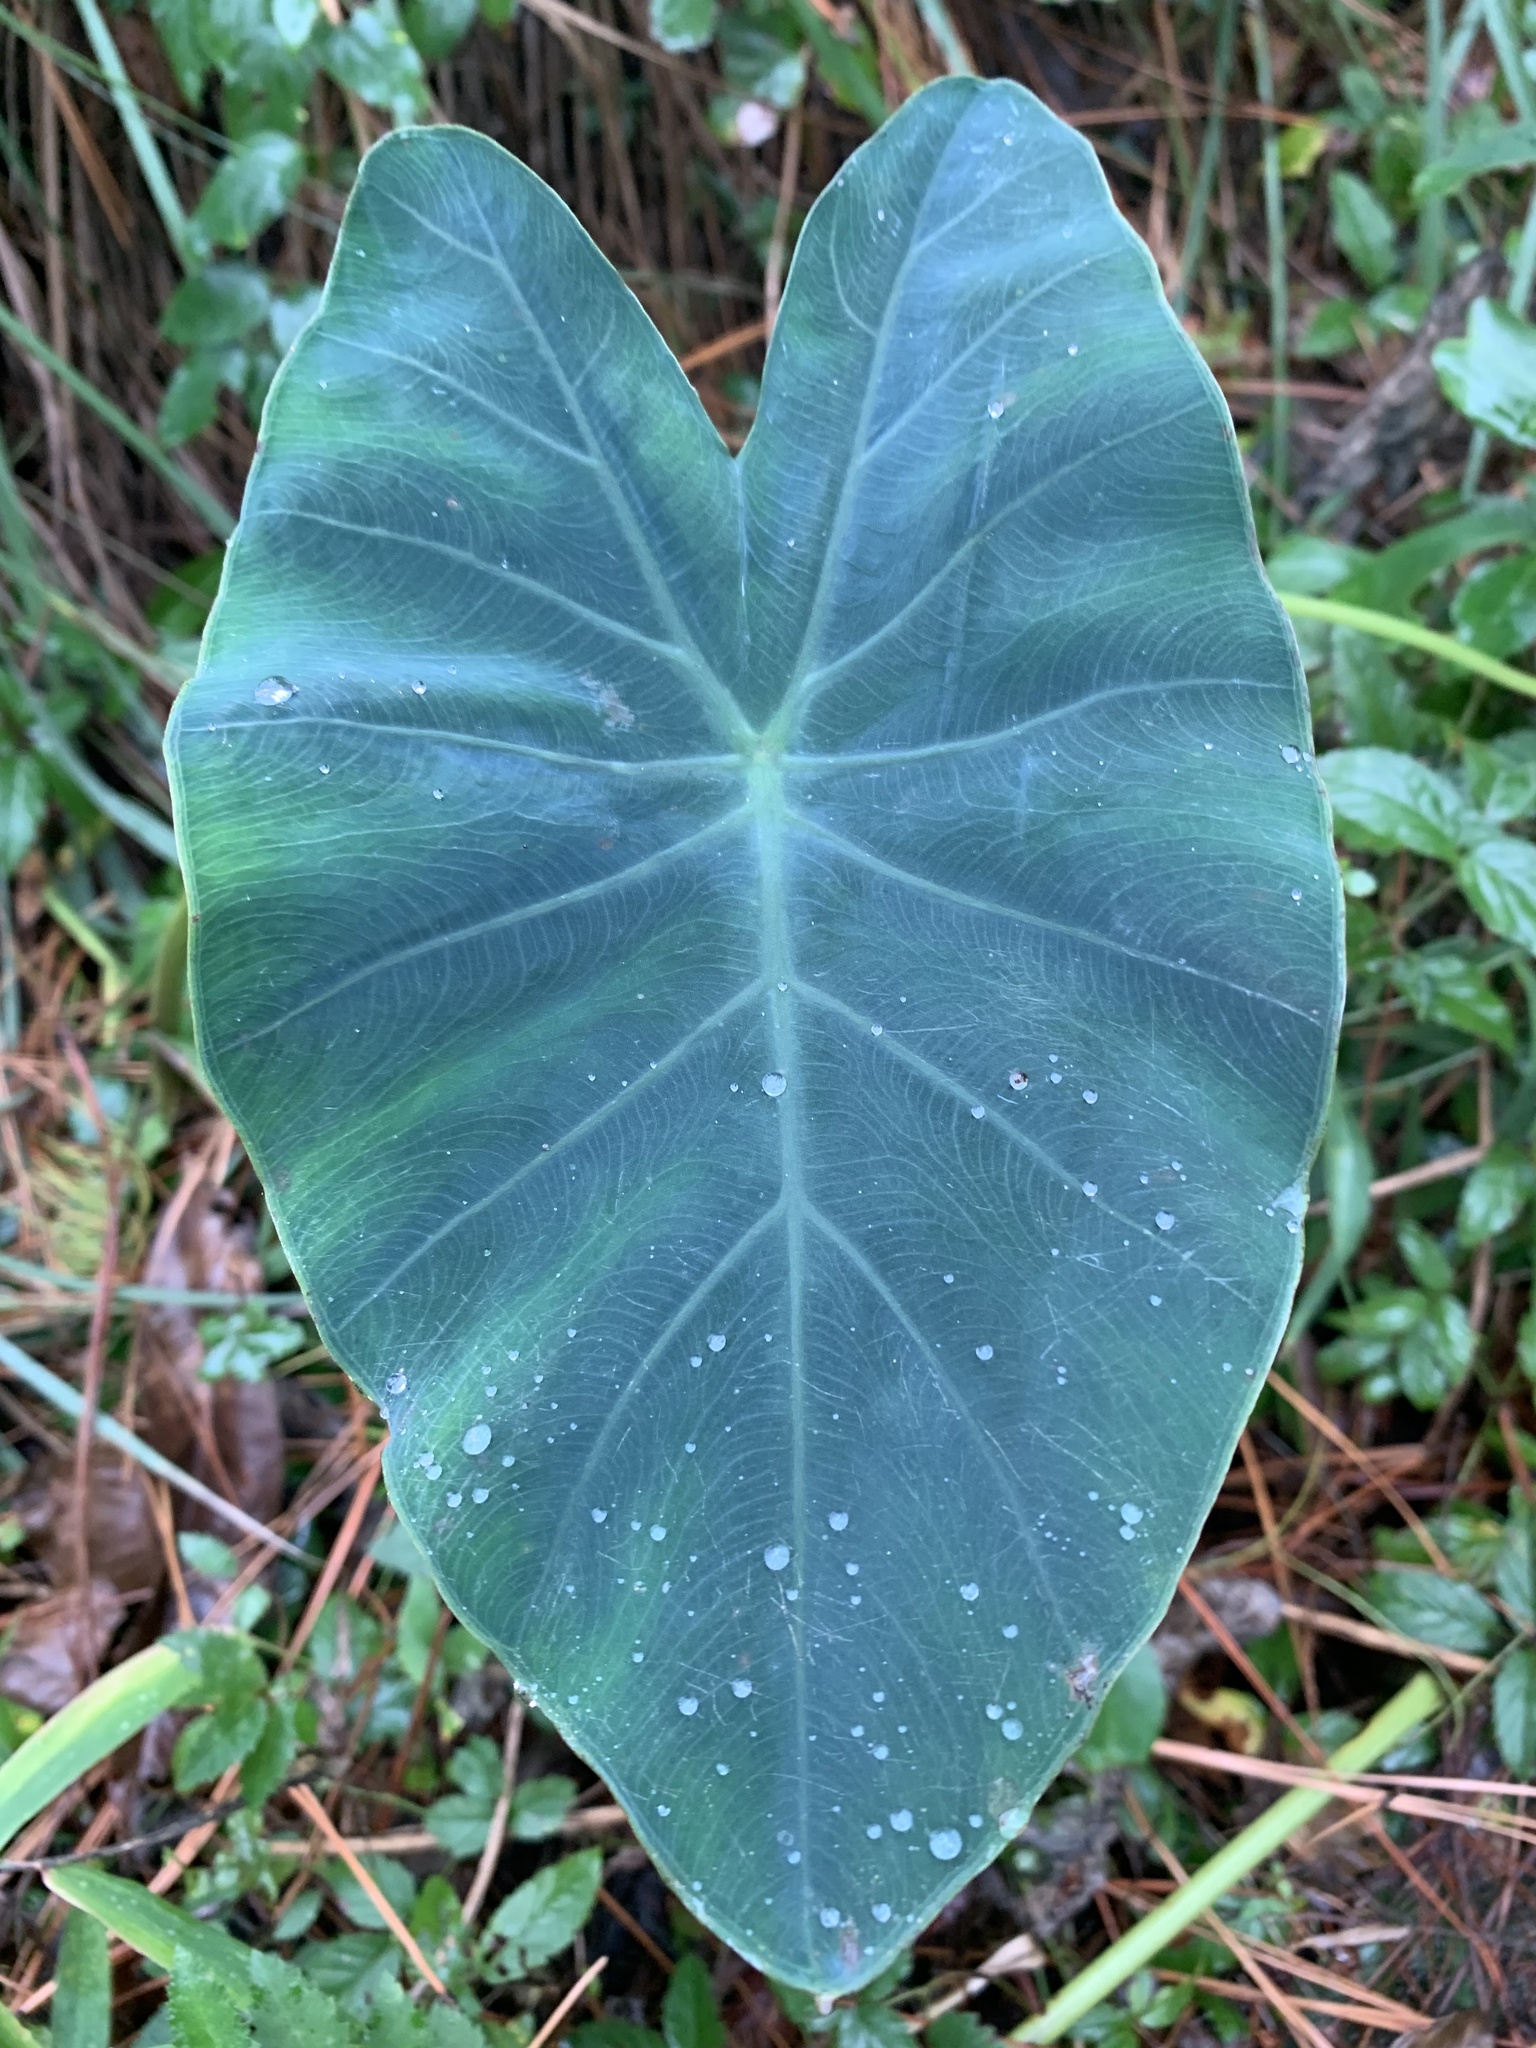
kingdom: Plantae
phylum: Tracheophyta
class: Liliopsida
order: Alismatales
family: Araceae
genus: Colocasia
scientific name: Colocasia esculenta
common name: Taro
